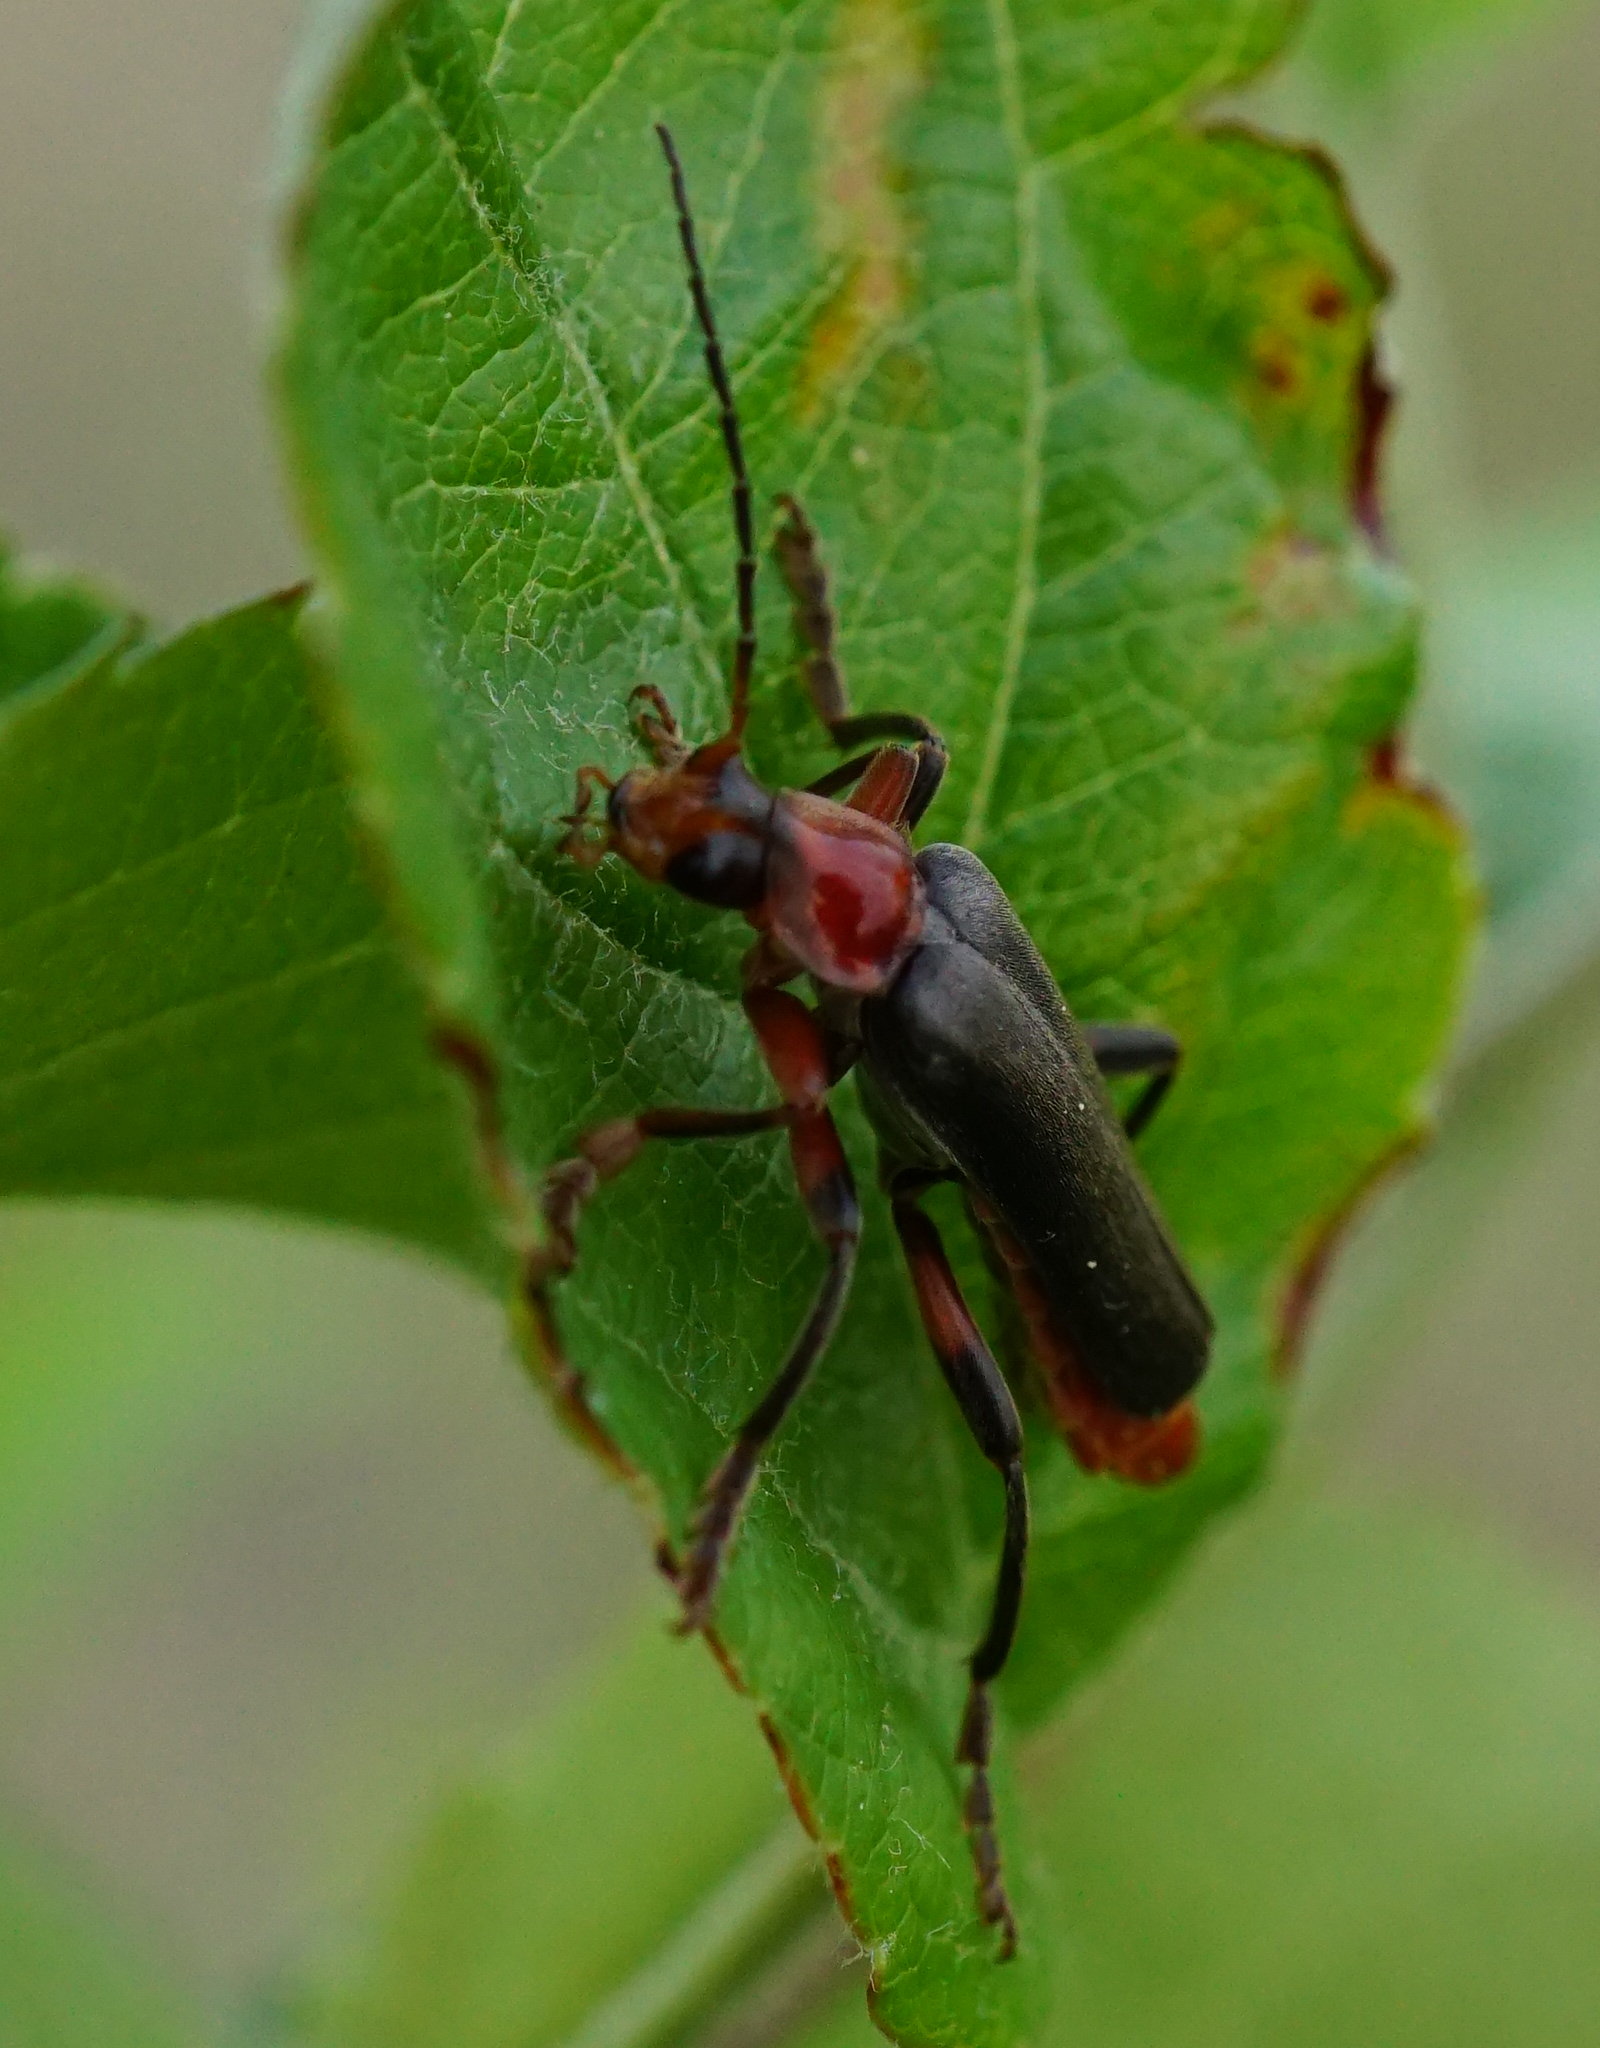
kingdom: Animalia
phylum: Arthropoda
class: Insecta
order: Coleoptera
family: Cantharidae
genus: Cantharis
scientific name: Cantharis livida
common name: Livid soldier beetle
